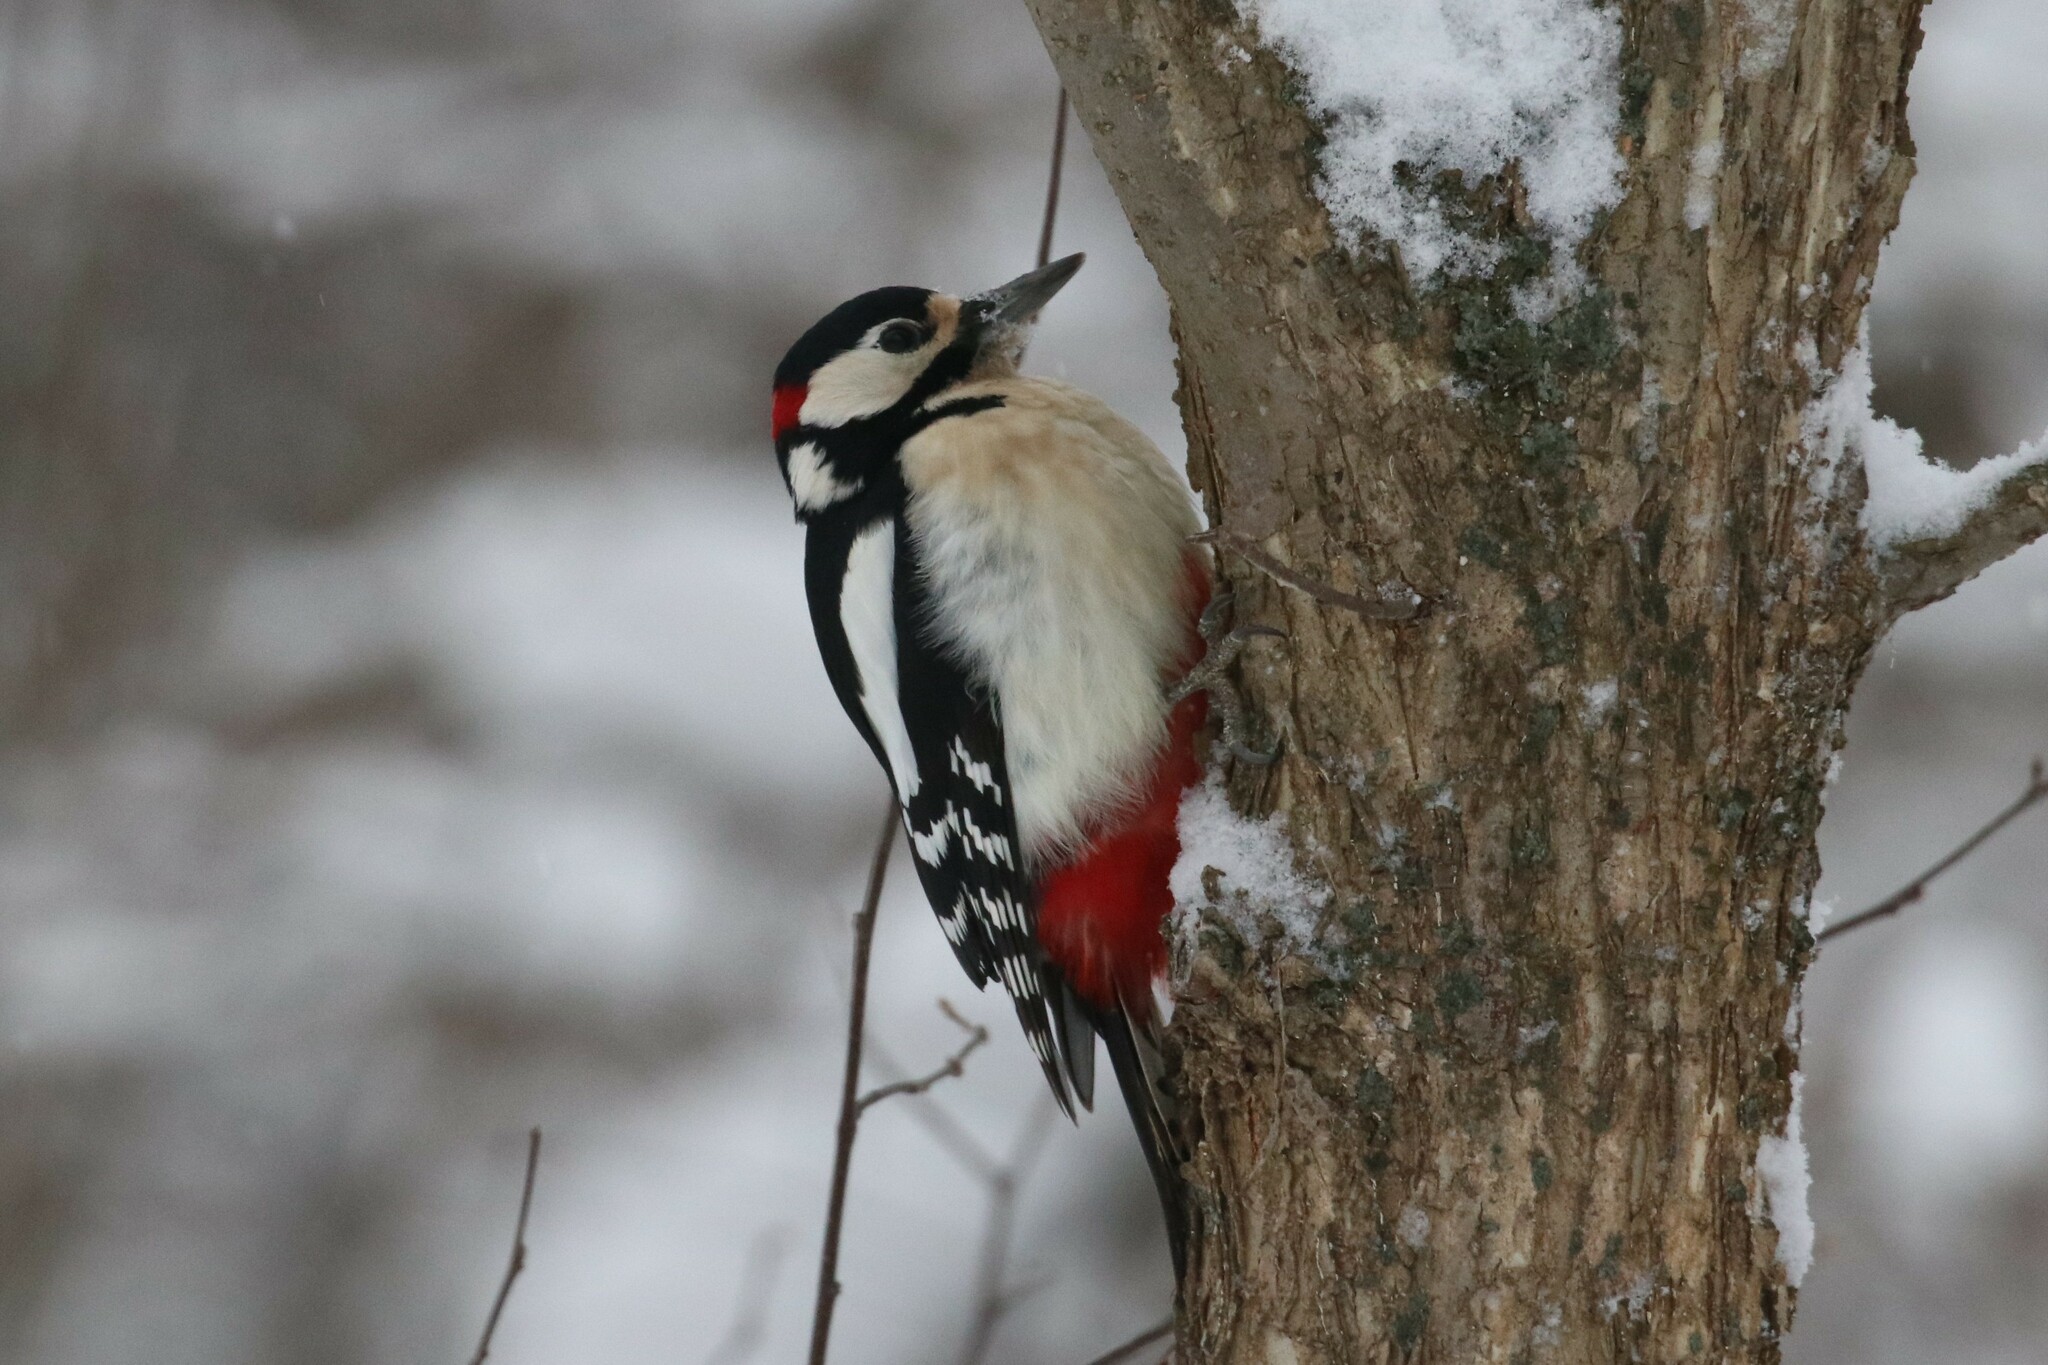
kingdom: Animalia
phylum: Chordata
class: Aves
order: Piciformes
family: Picidae
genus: Dendrocopos
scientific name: Dendrocopos major
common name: Great spotted woodpecker
